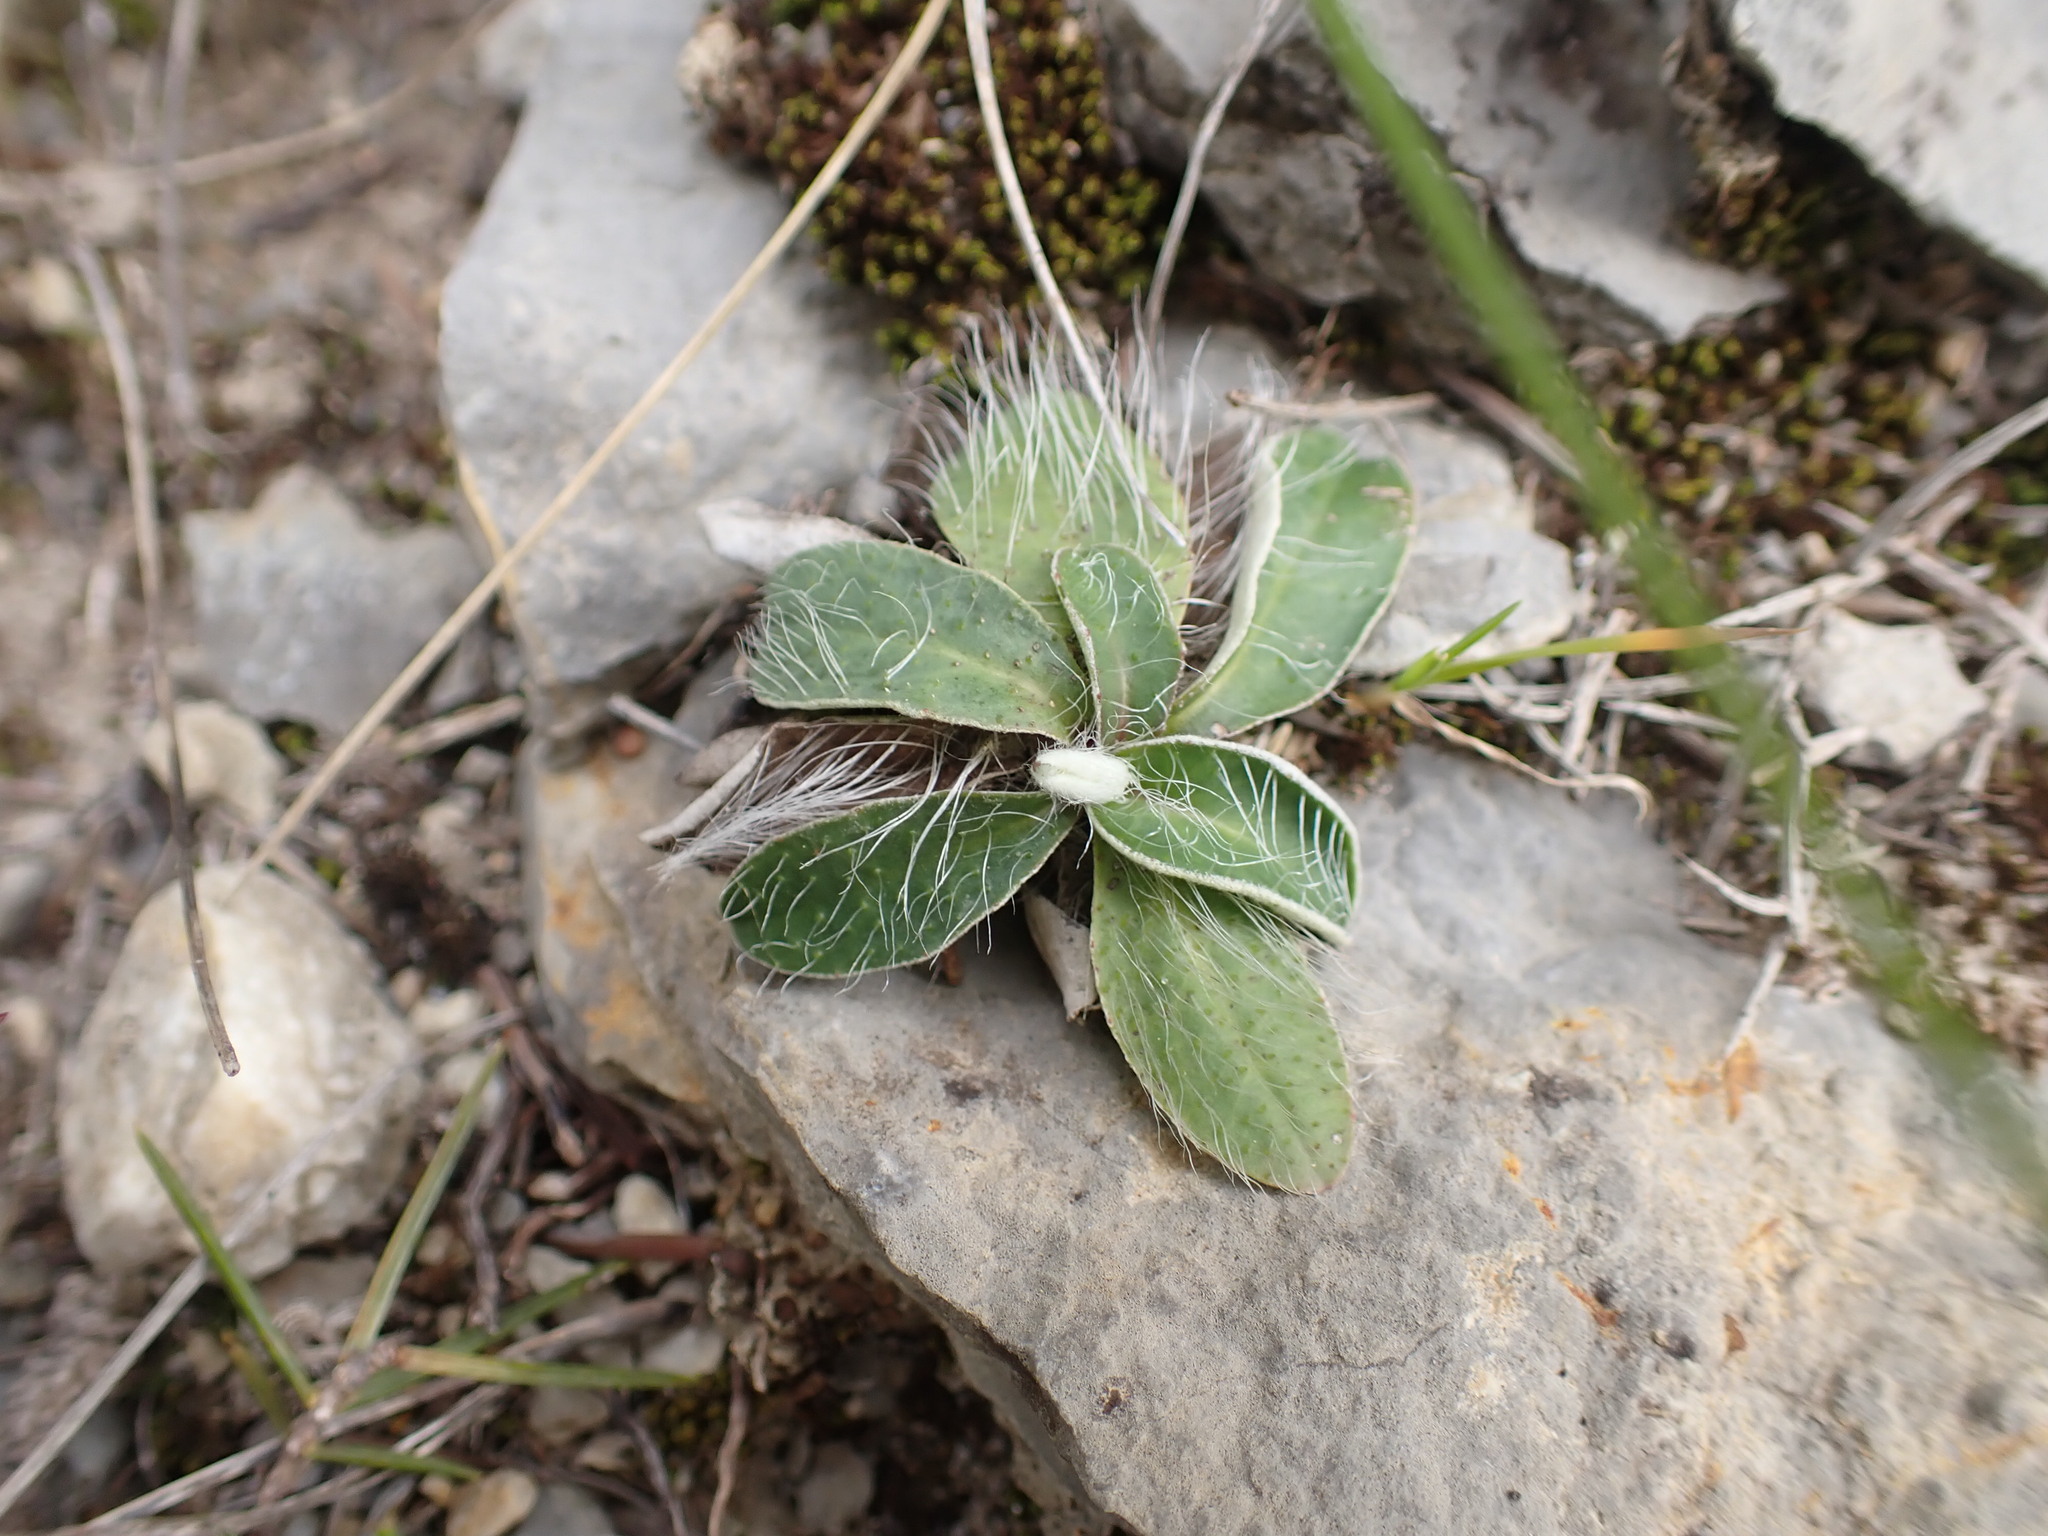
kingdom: Plantae
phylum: Tracheophyta
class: Magnoliopsida
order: Asterales
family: Asteraceae
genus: Pilosella
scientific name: Pilosella officinarum
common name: Mouse-ear hawkweed
